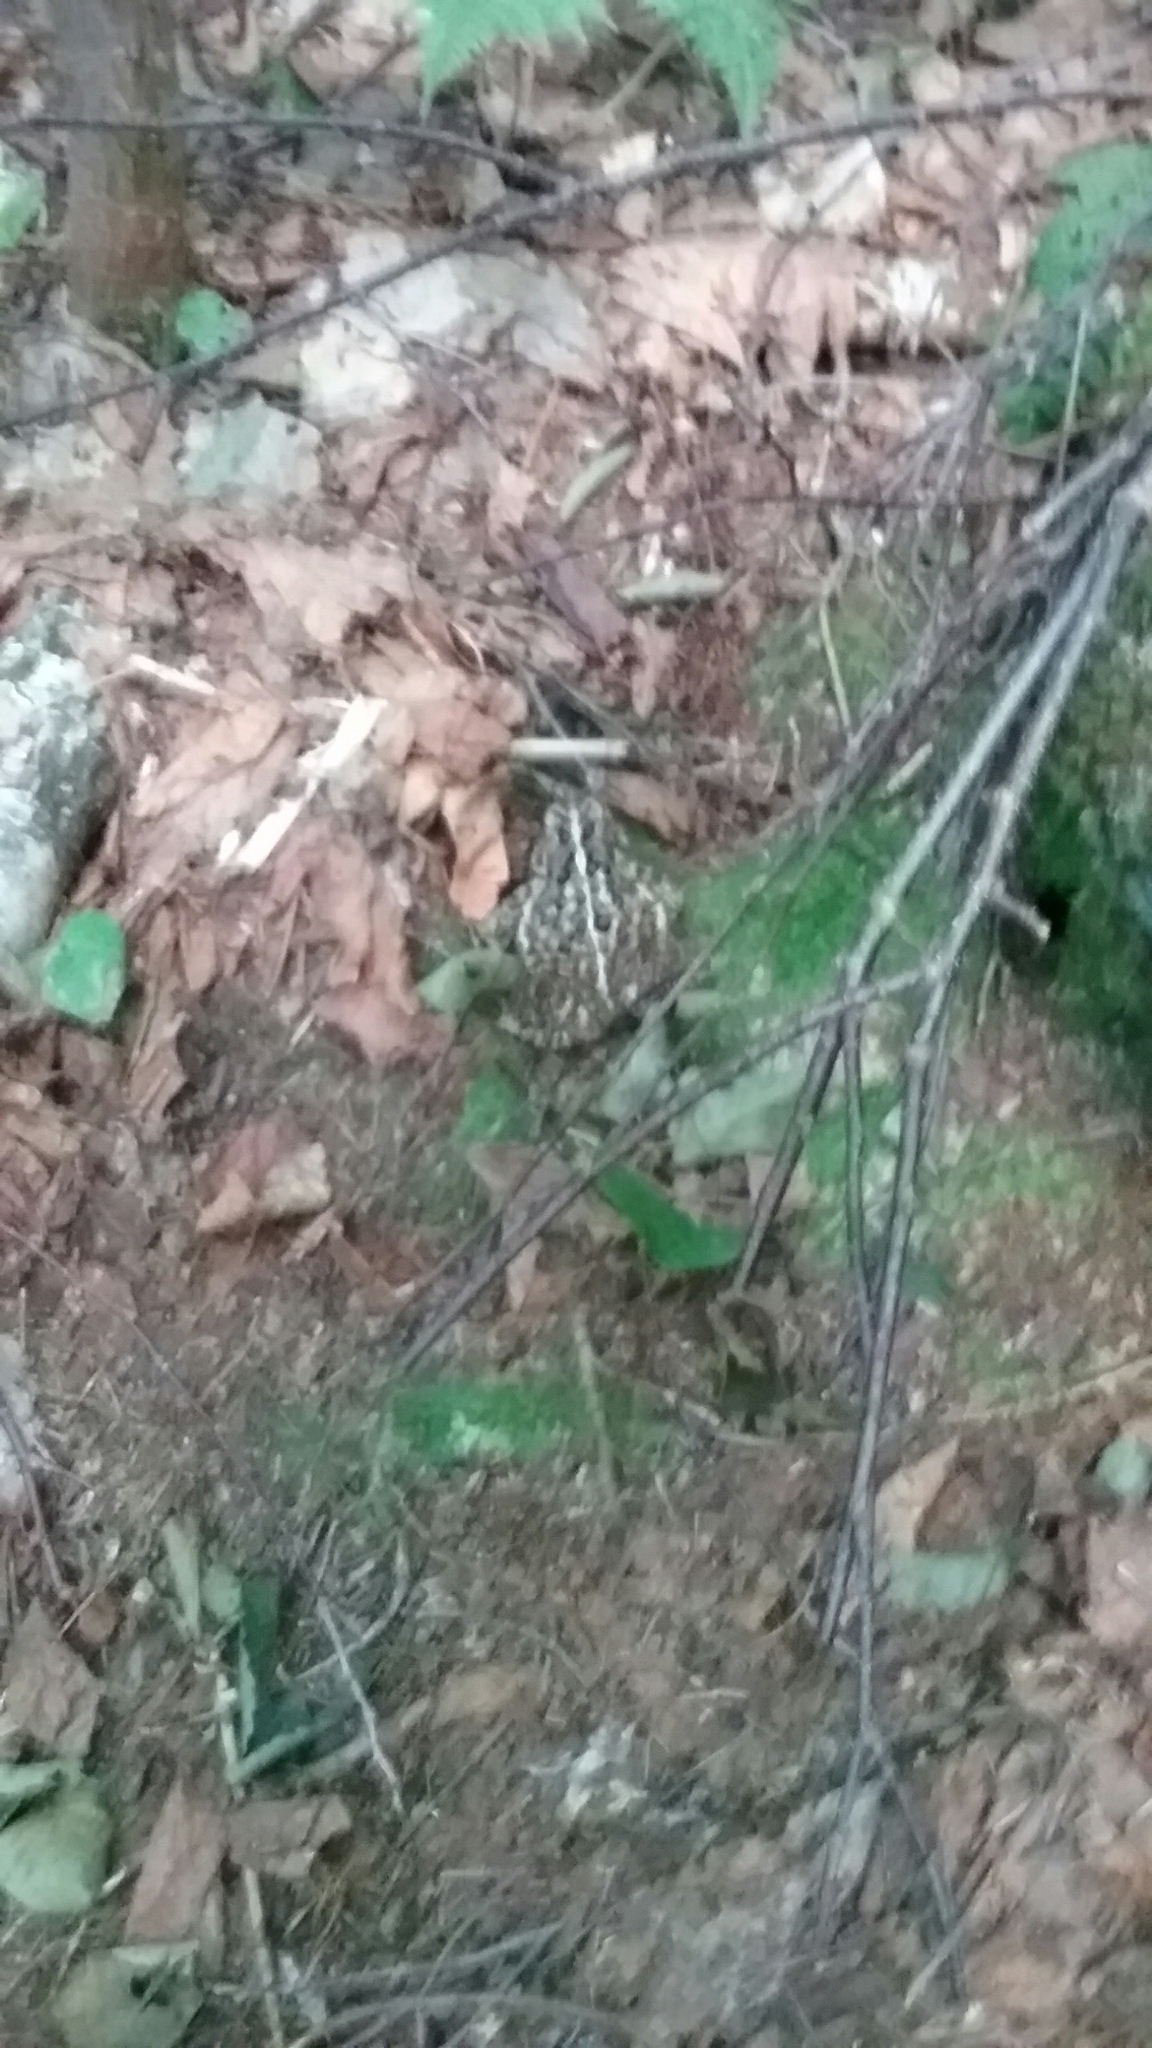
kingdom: Animalia
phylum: Chordata
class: Amphibia
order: Anura
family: Bufonidae
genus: Anaxyrus
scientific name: Anaxyrus americanus
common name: American toad
